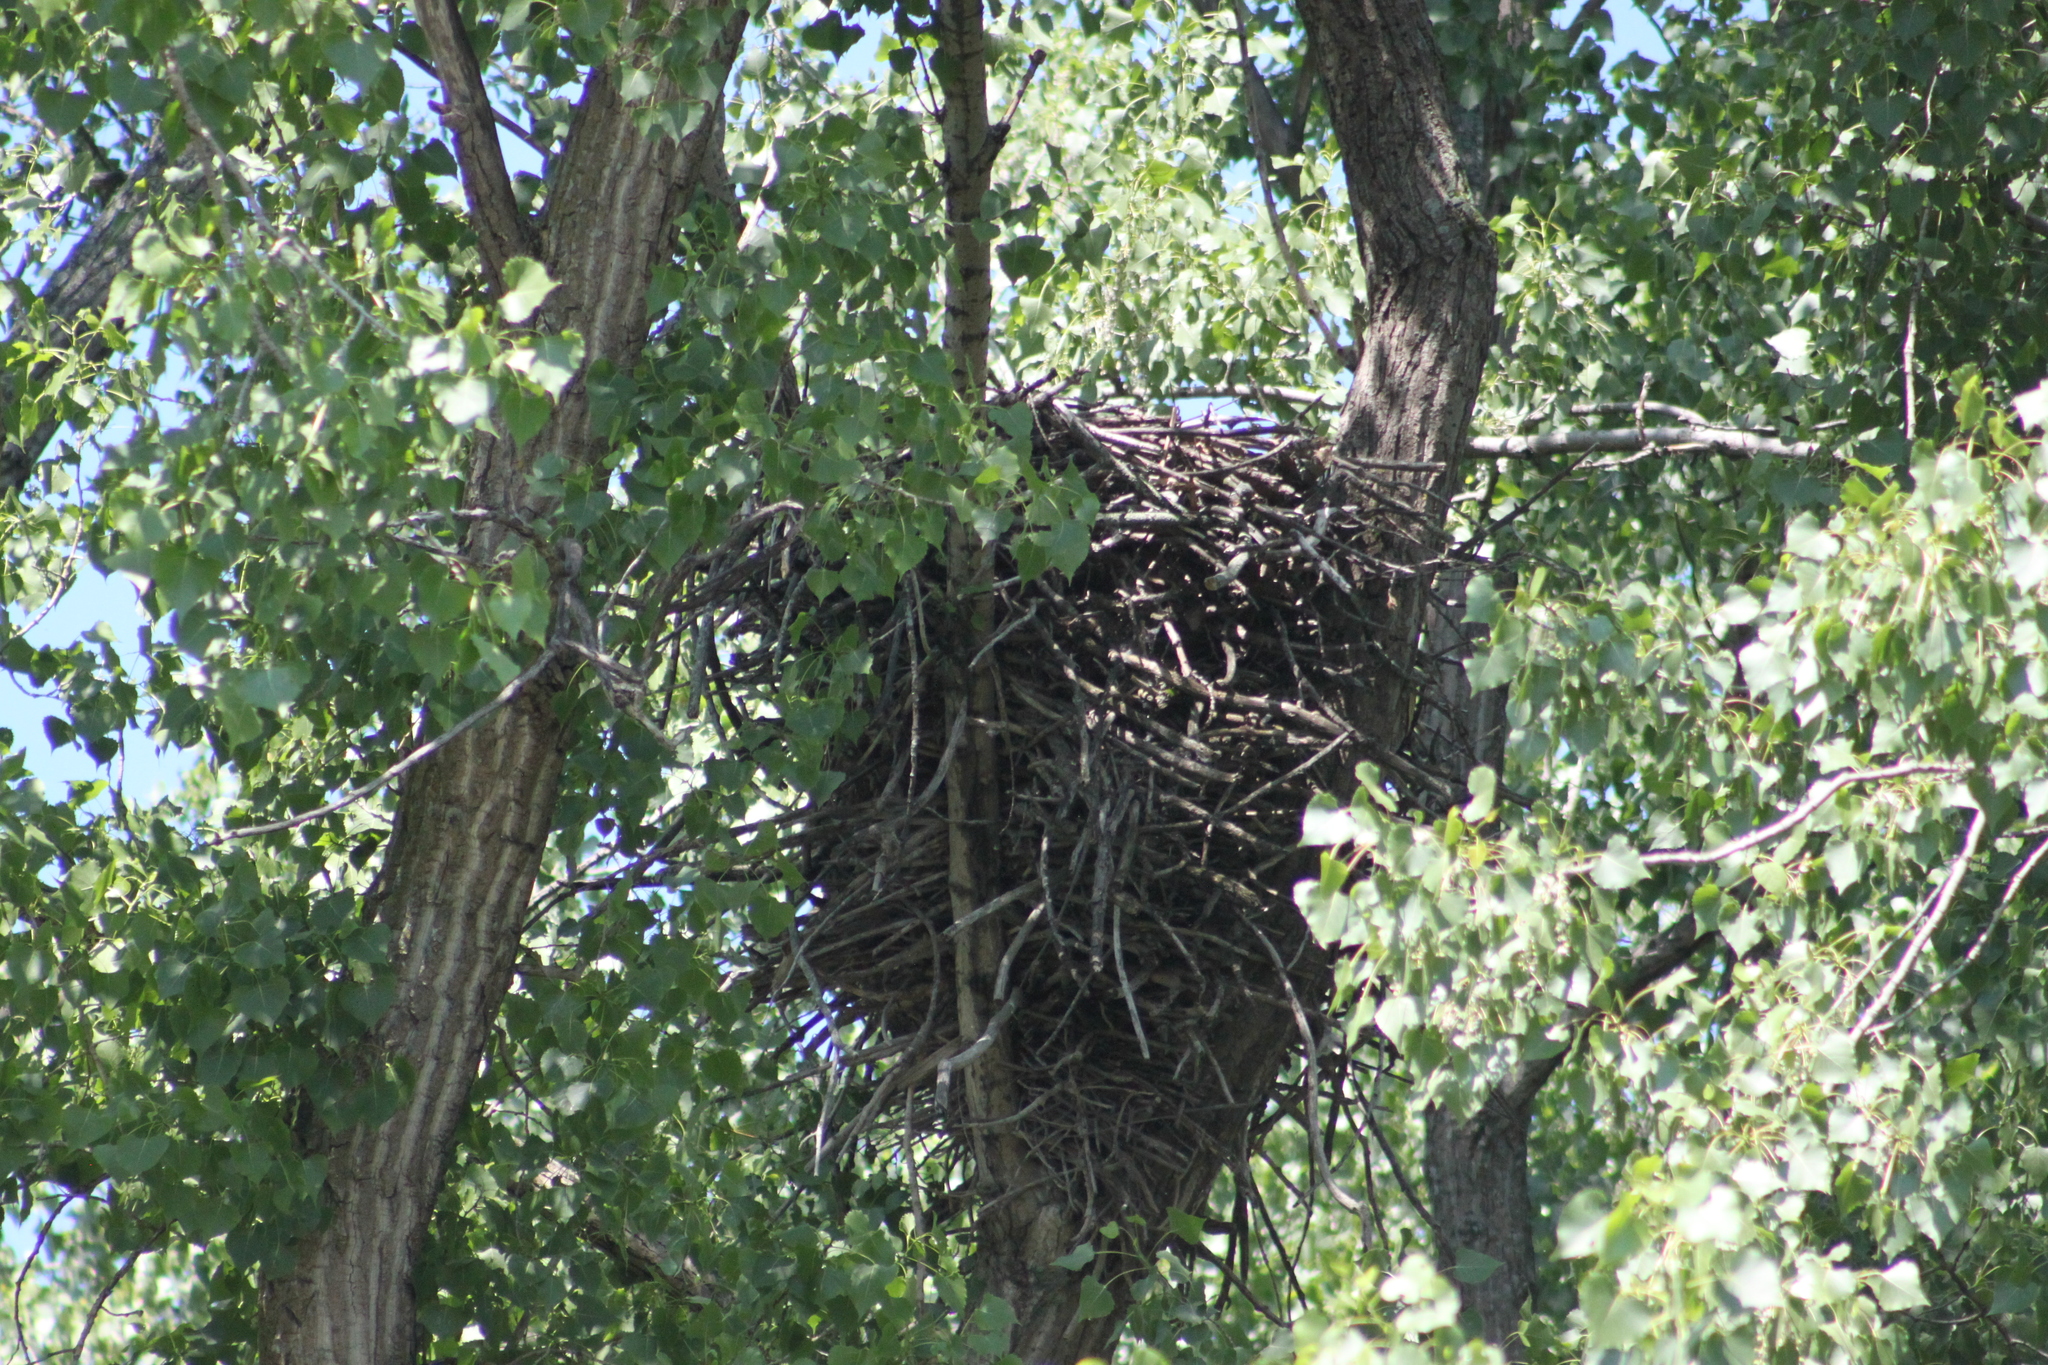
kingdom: Animalia
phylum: Chordata
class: Aves
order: Accipitriformes
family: Accipitridae
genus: Haliaeetus
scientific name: Haliaeetus leucocephalus
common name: Bald eagle
